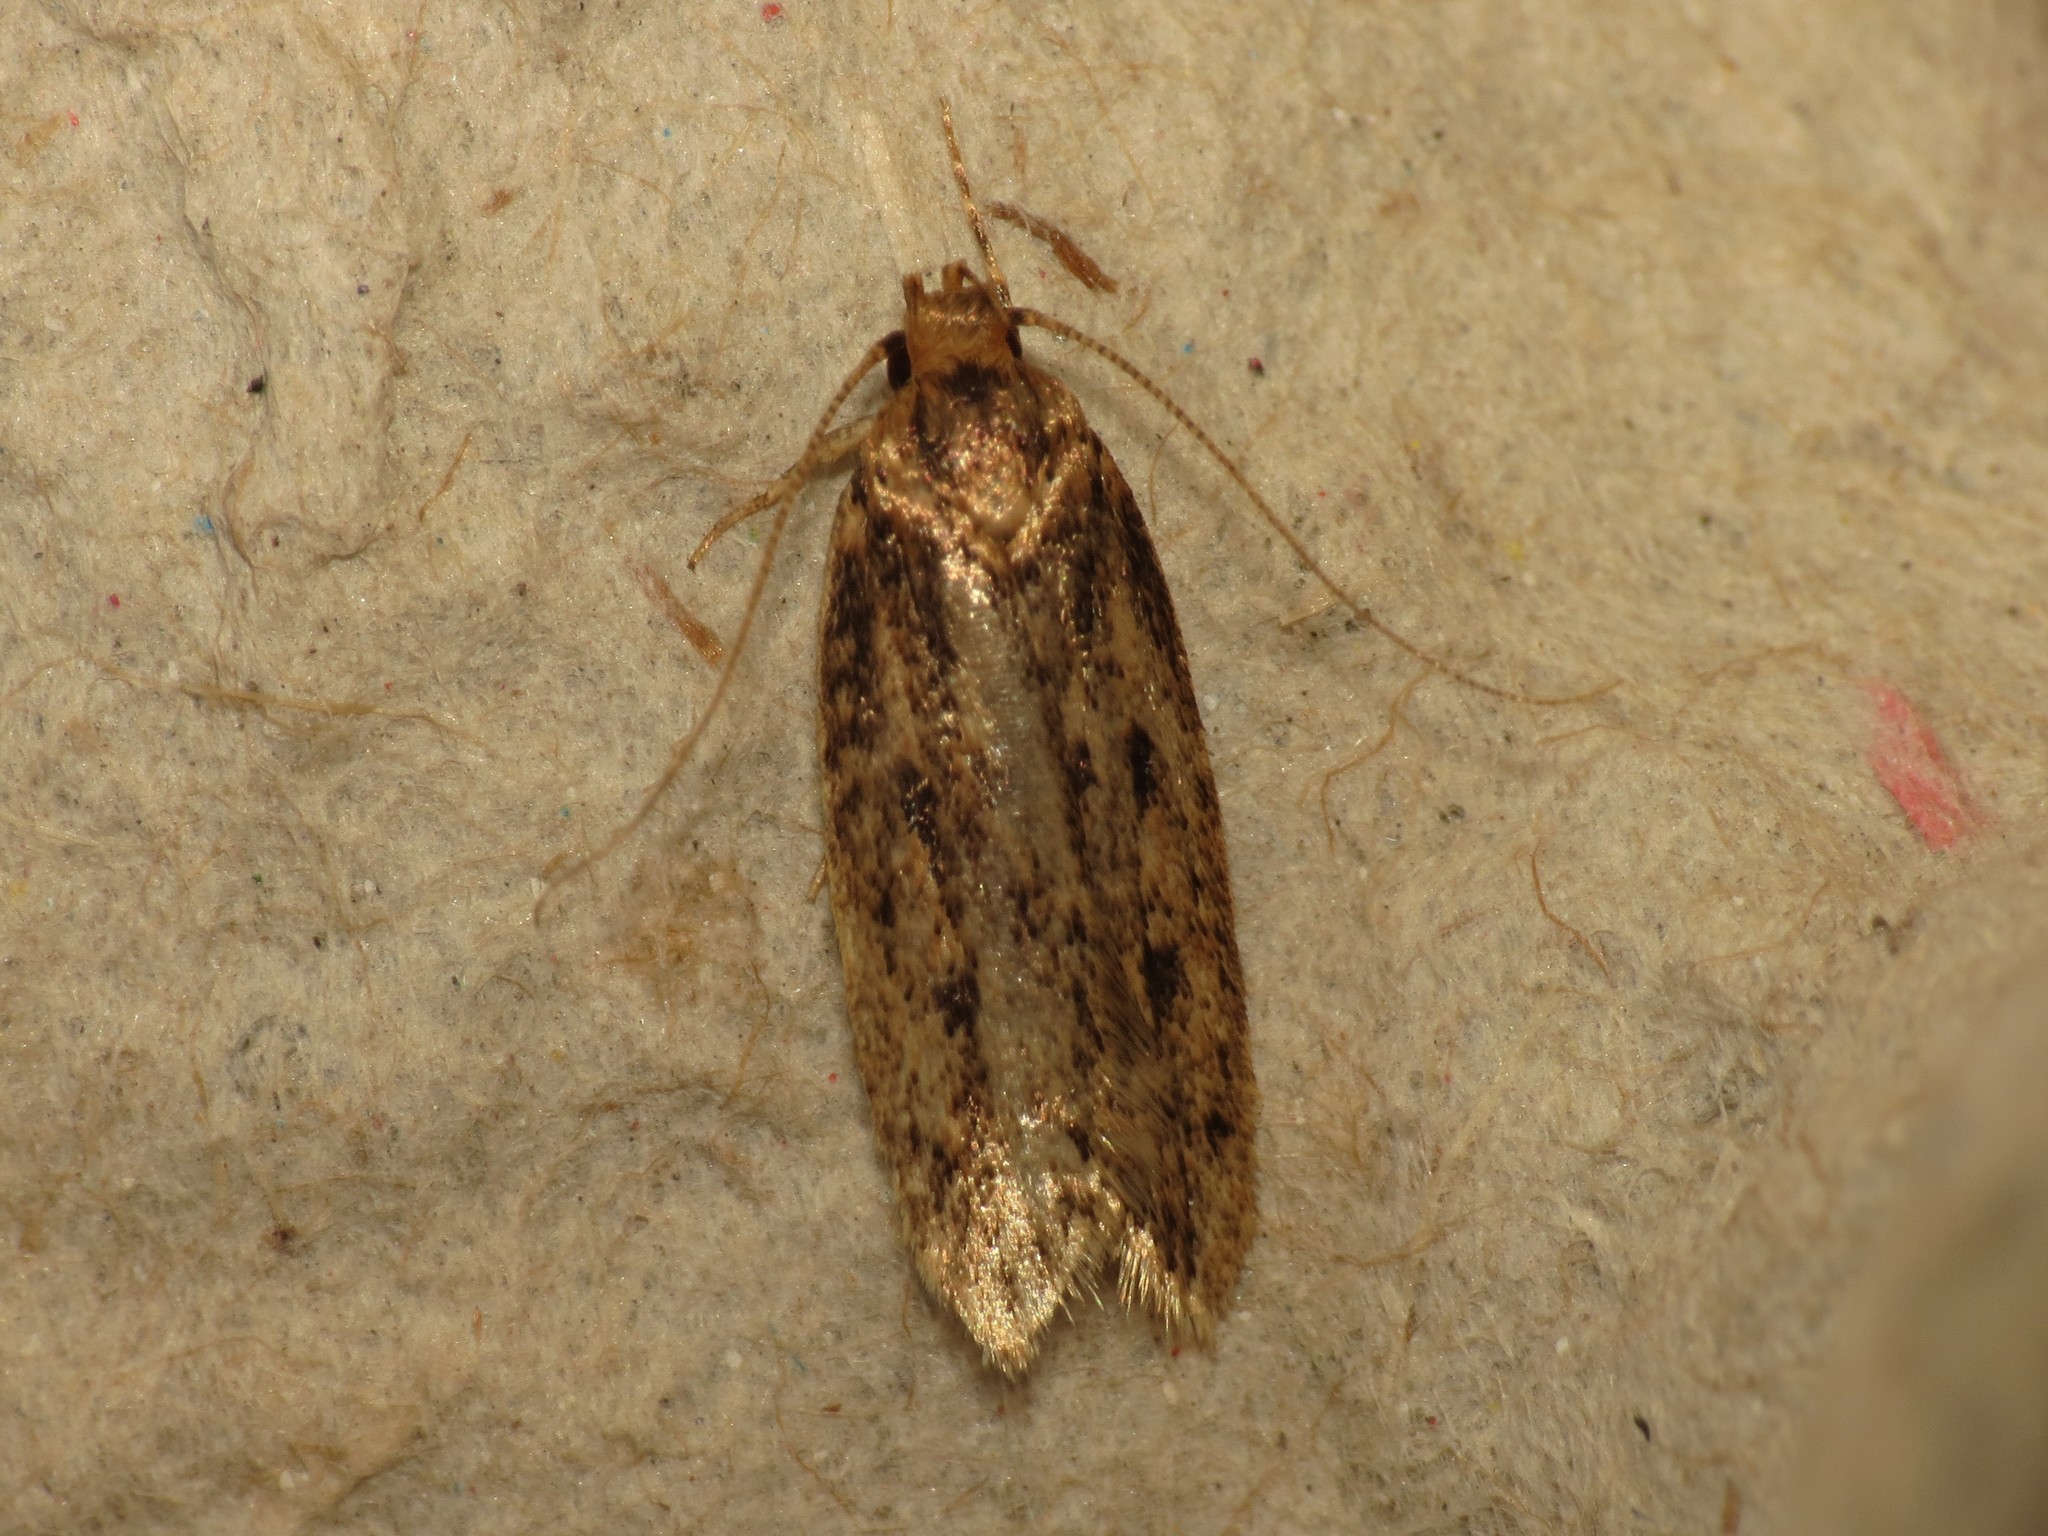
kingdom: Animalia
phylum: Arthropoda
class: Insecta
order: Lepidoptera
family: Oecophoridae
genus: Hofmannophila
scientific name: Hofmannophila pseudospretella
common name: Brown house moth
